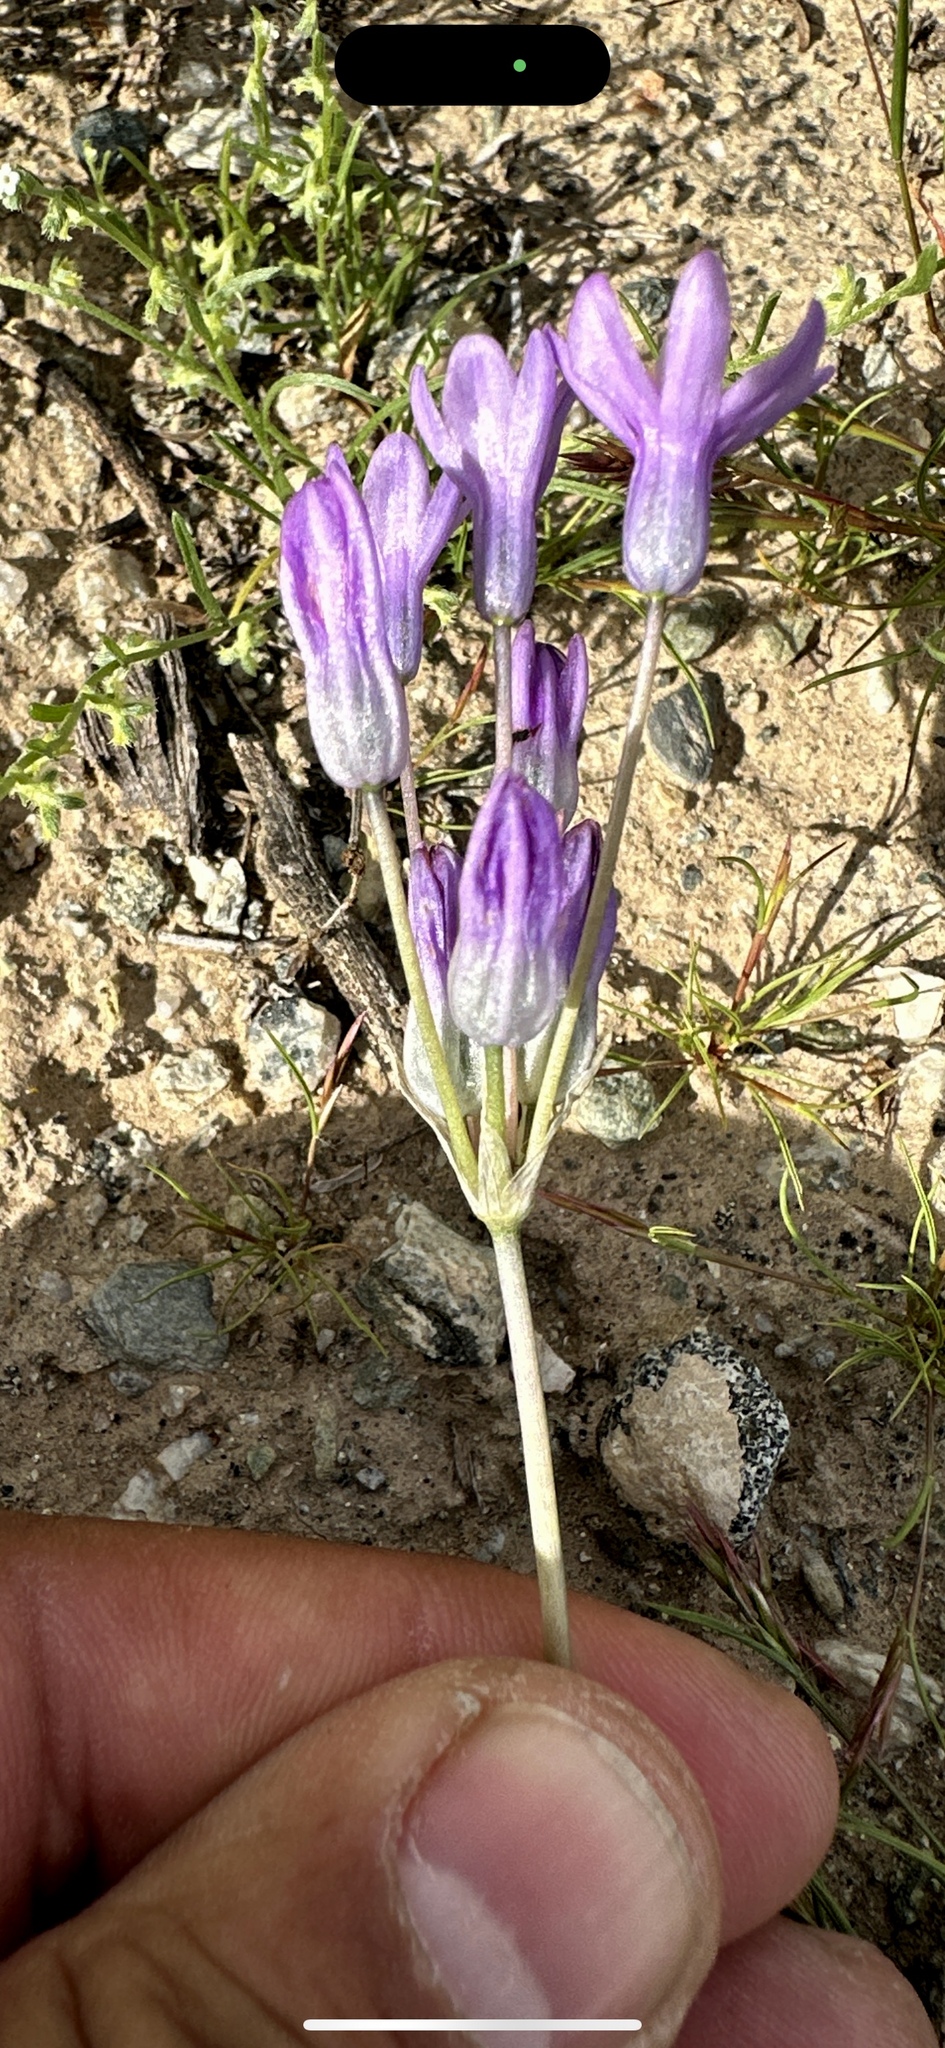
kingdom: Plantae
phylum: Tracheophyta
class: Liliopsida
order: Asparagales
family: Asparagaceae
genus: Dipterostemon
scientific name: Dipterostemon capitatus
